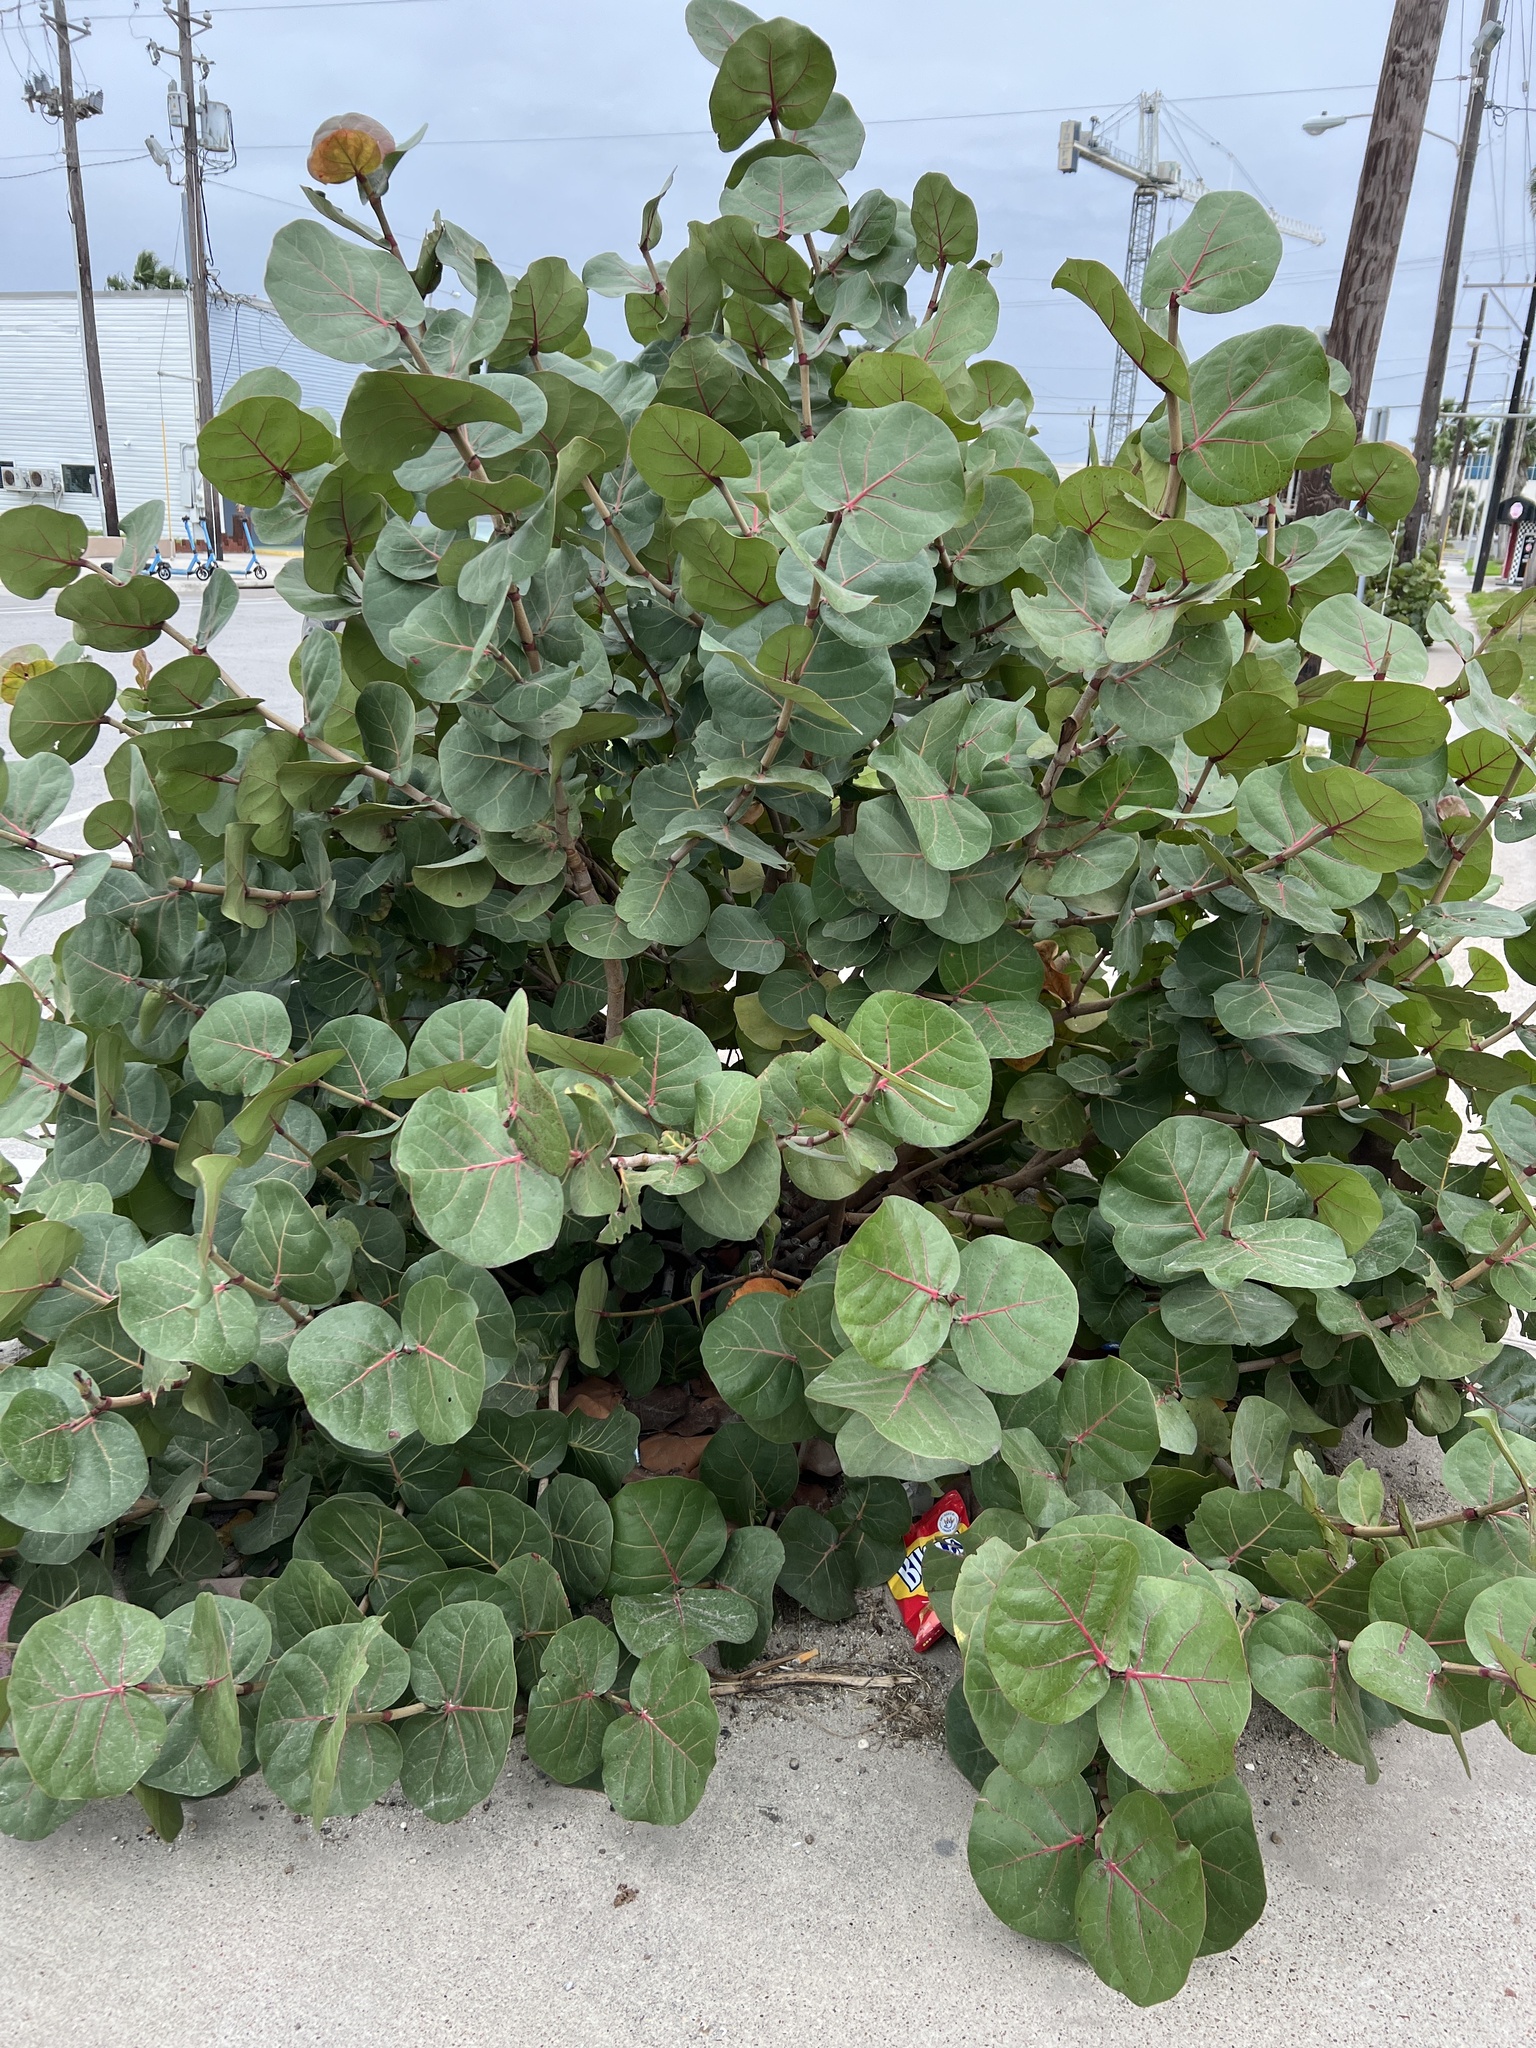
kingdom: Plantae
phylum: Tracheophyta
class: Magnoliopsida
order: Caryophyllales
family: Polygonaceae
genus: Coccoloba
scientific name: Coccoloba uvifera
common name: Seagrape
